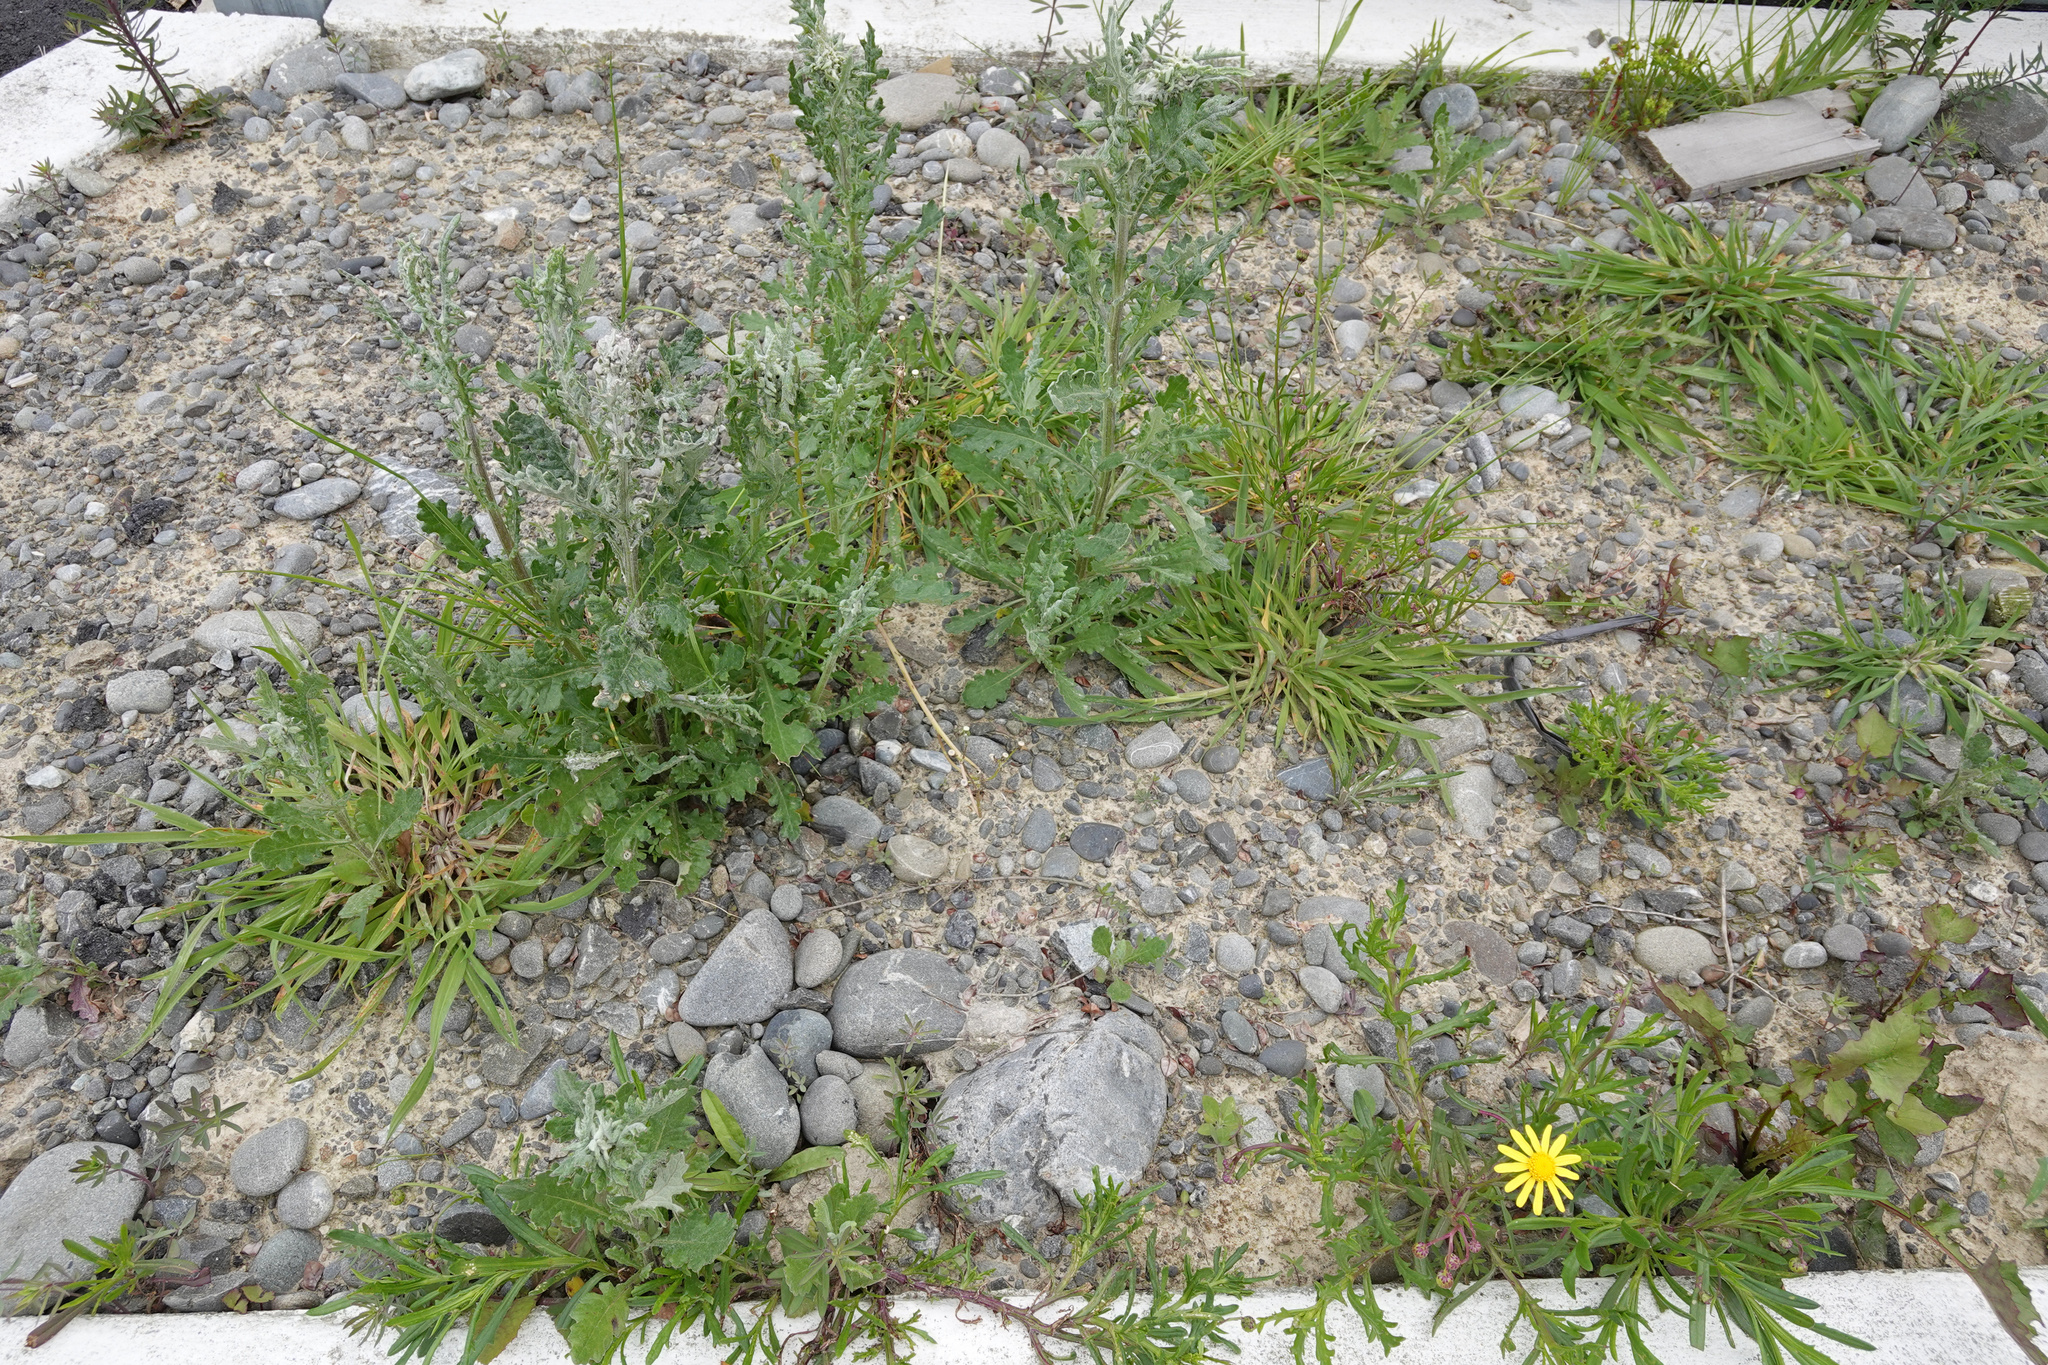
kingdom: Plantae
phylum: Tracheophyta
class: Magnoliopsida
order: Asterales
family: Asteraceae
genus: Senecio
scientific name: Senecio glomeratus
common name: Cutleaf burnweed
